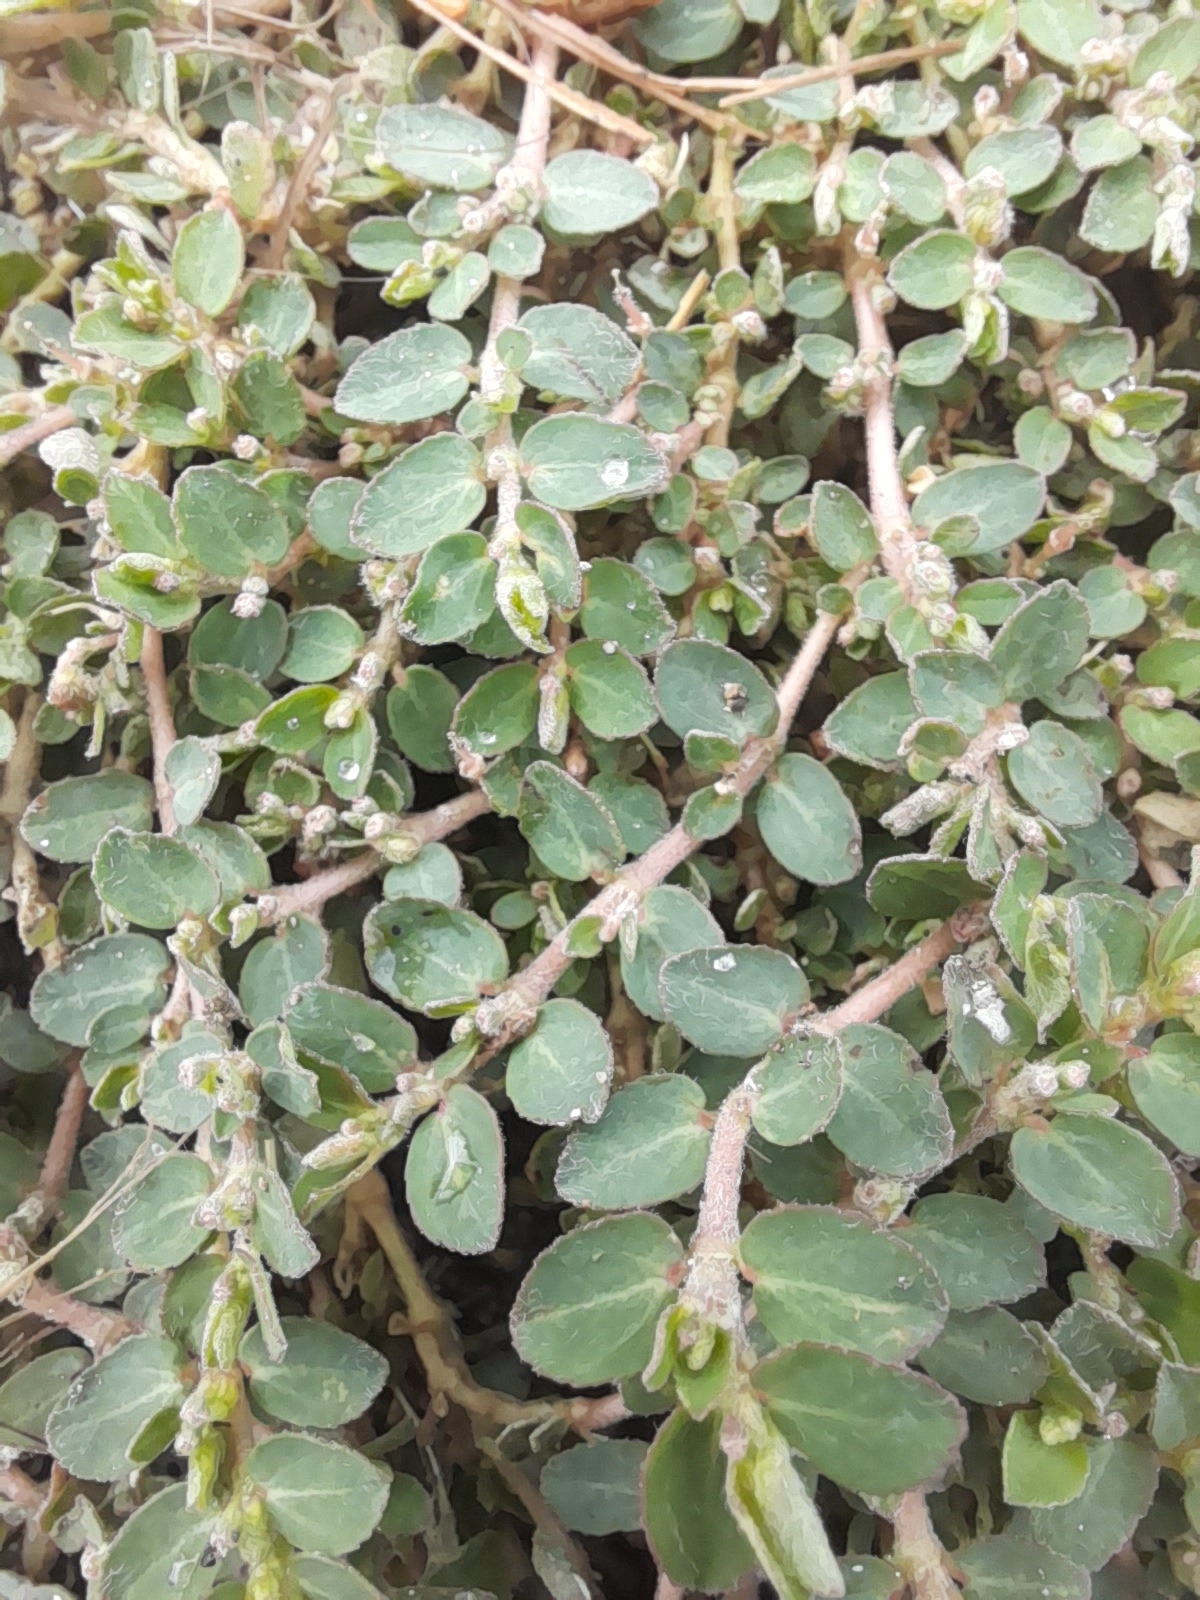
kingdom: Plantae
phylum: Tracheophyta
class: Magnoliopsida
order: Malpighiales
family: Euphorbiaceae
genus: Euphorbia
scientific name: Euphorbia prostrata
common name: Prostrate sandmat
